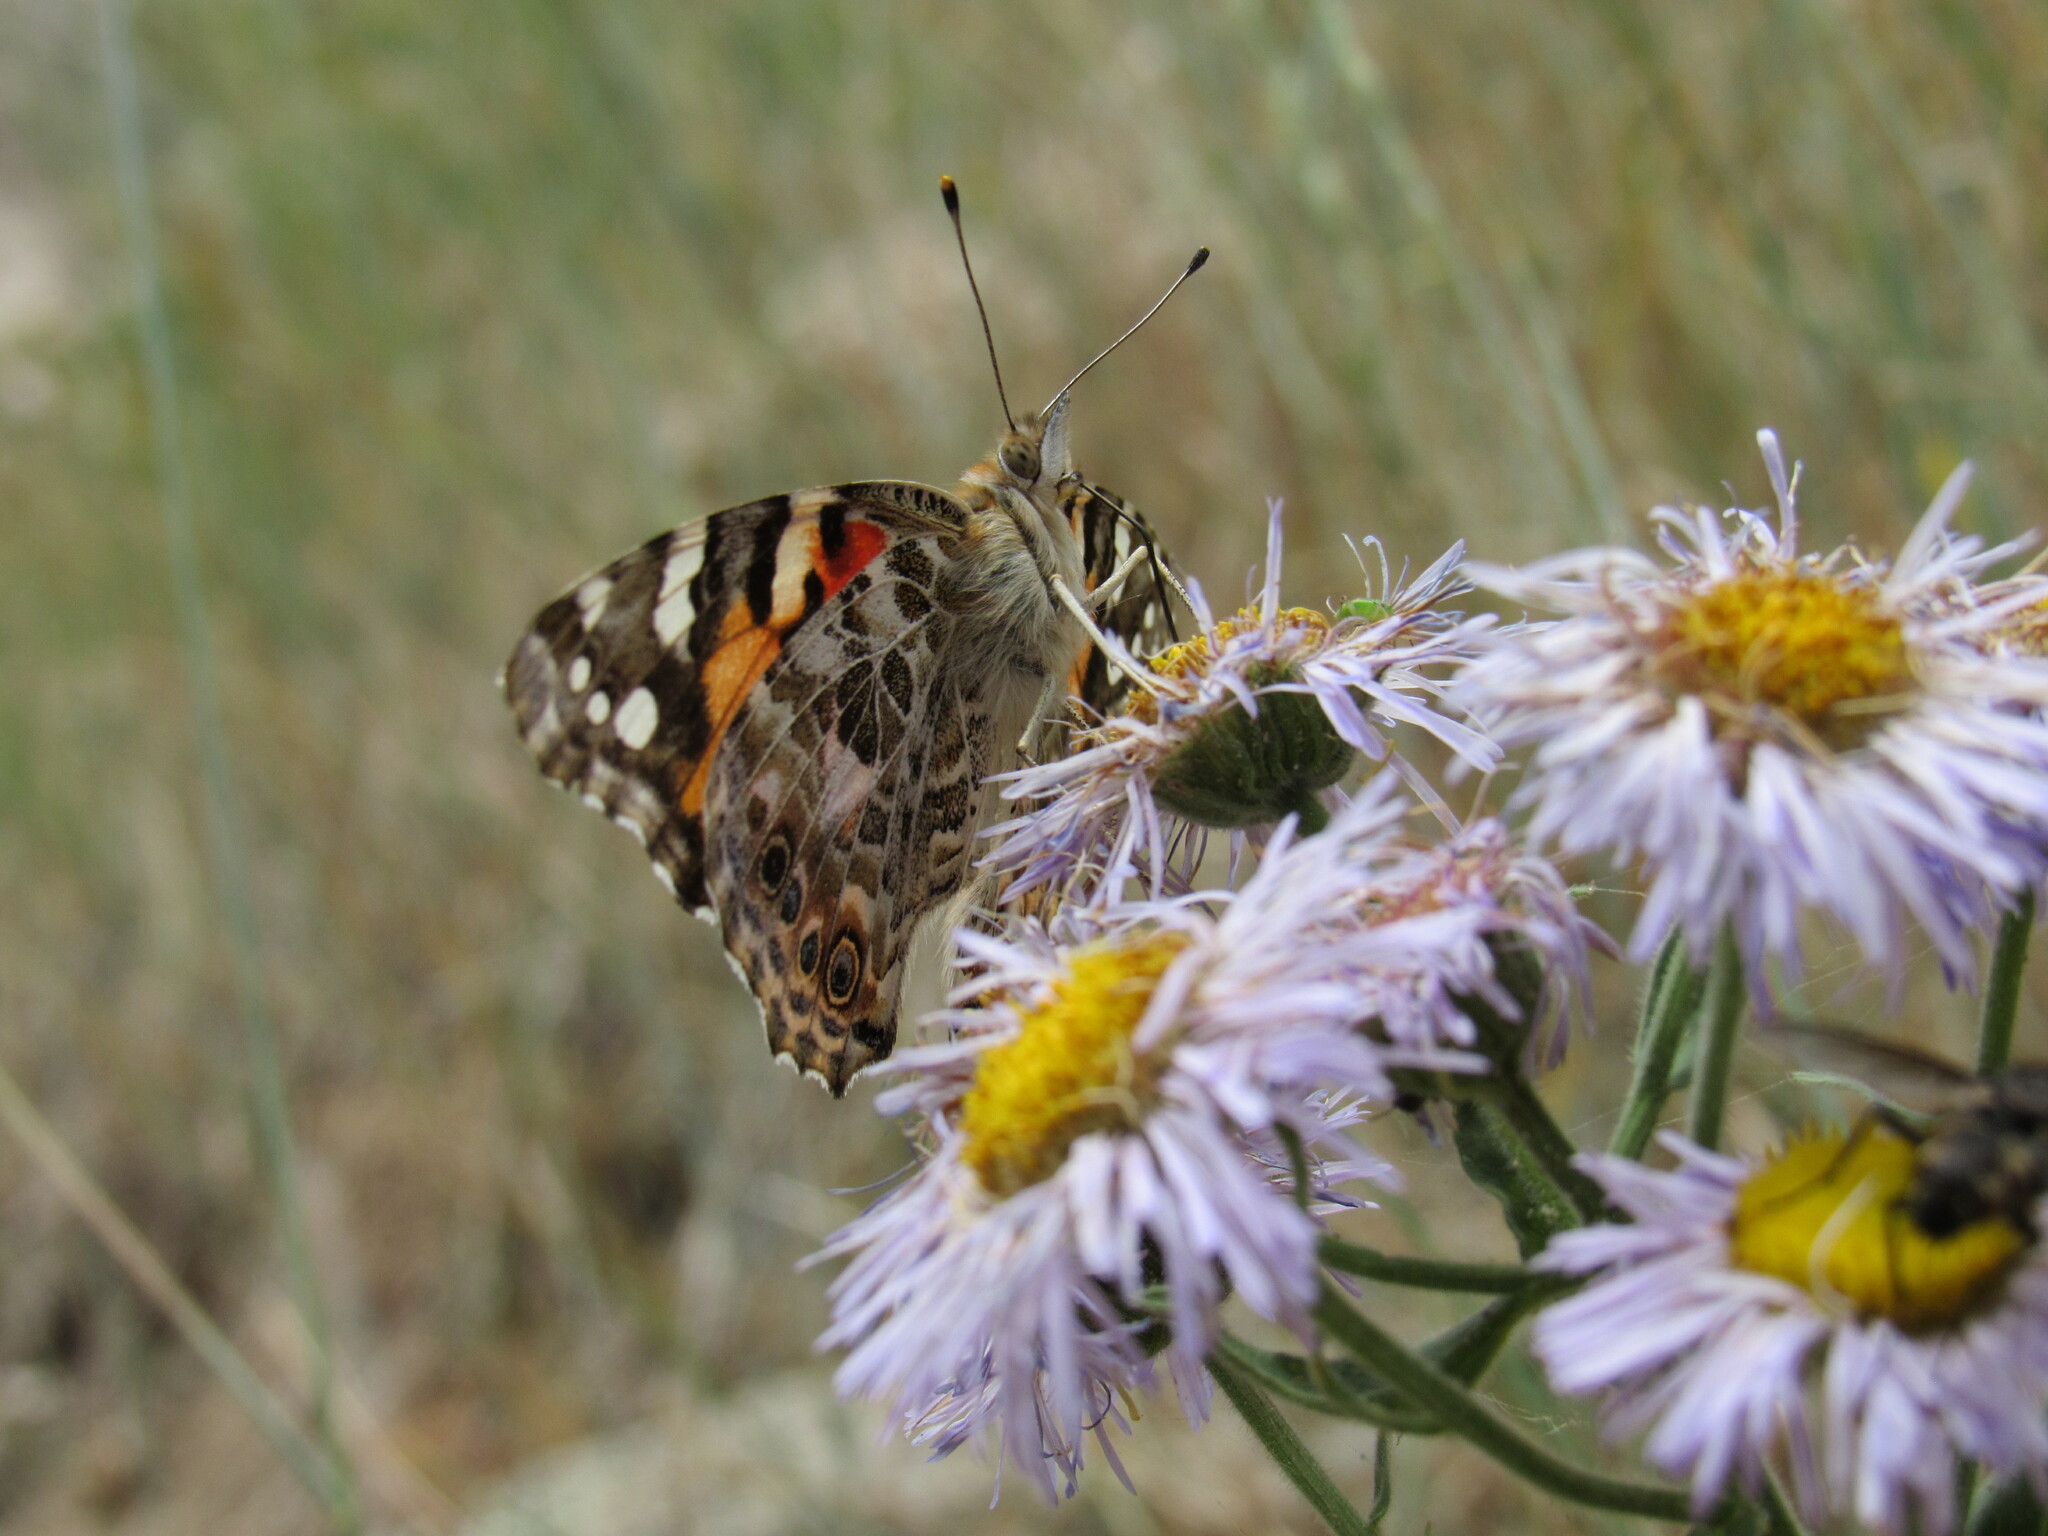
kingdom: Animalia
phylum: Arthropoda
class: Insecta
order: Lepidoptera
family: Nymphalidae
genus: Vanessa
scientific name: Vanessa cardui
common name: Painted lady
